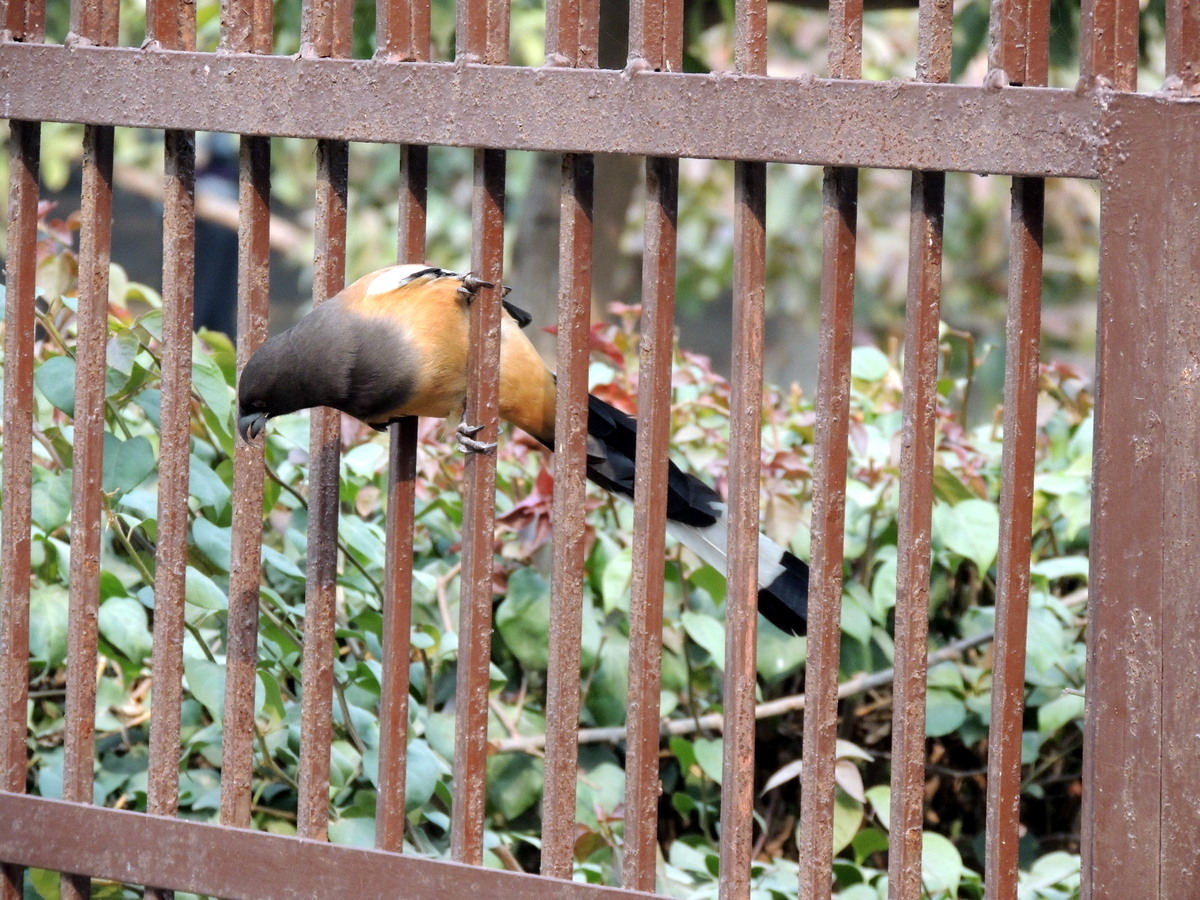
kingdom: Animalia
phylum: Chordata
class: Aves
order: Passeriformes
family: Corvidae
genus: Dendrocitta
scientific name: Dendrocitta vagabunda
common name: Rufous treepie
